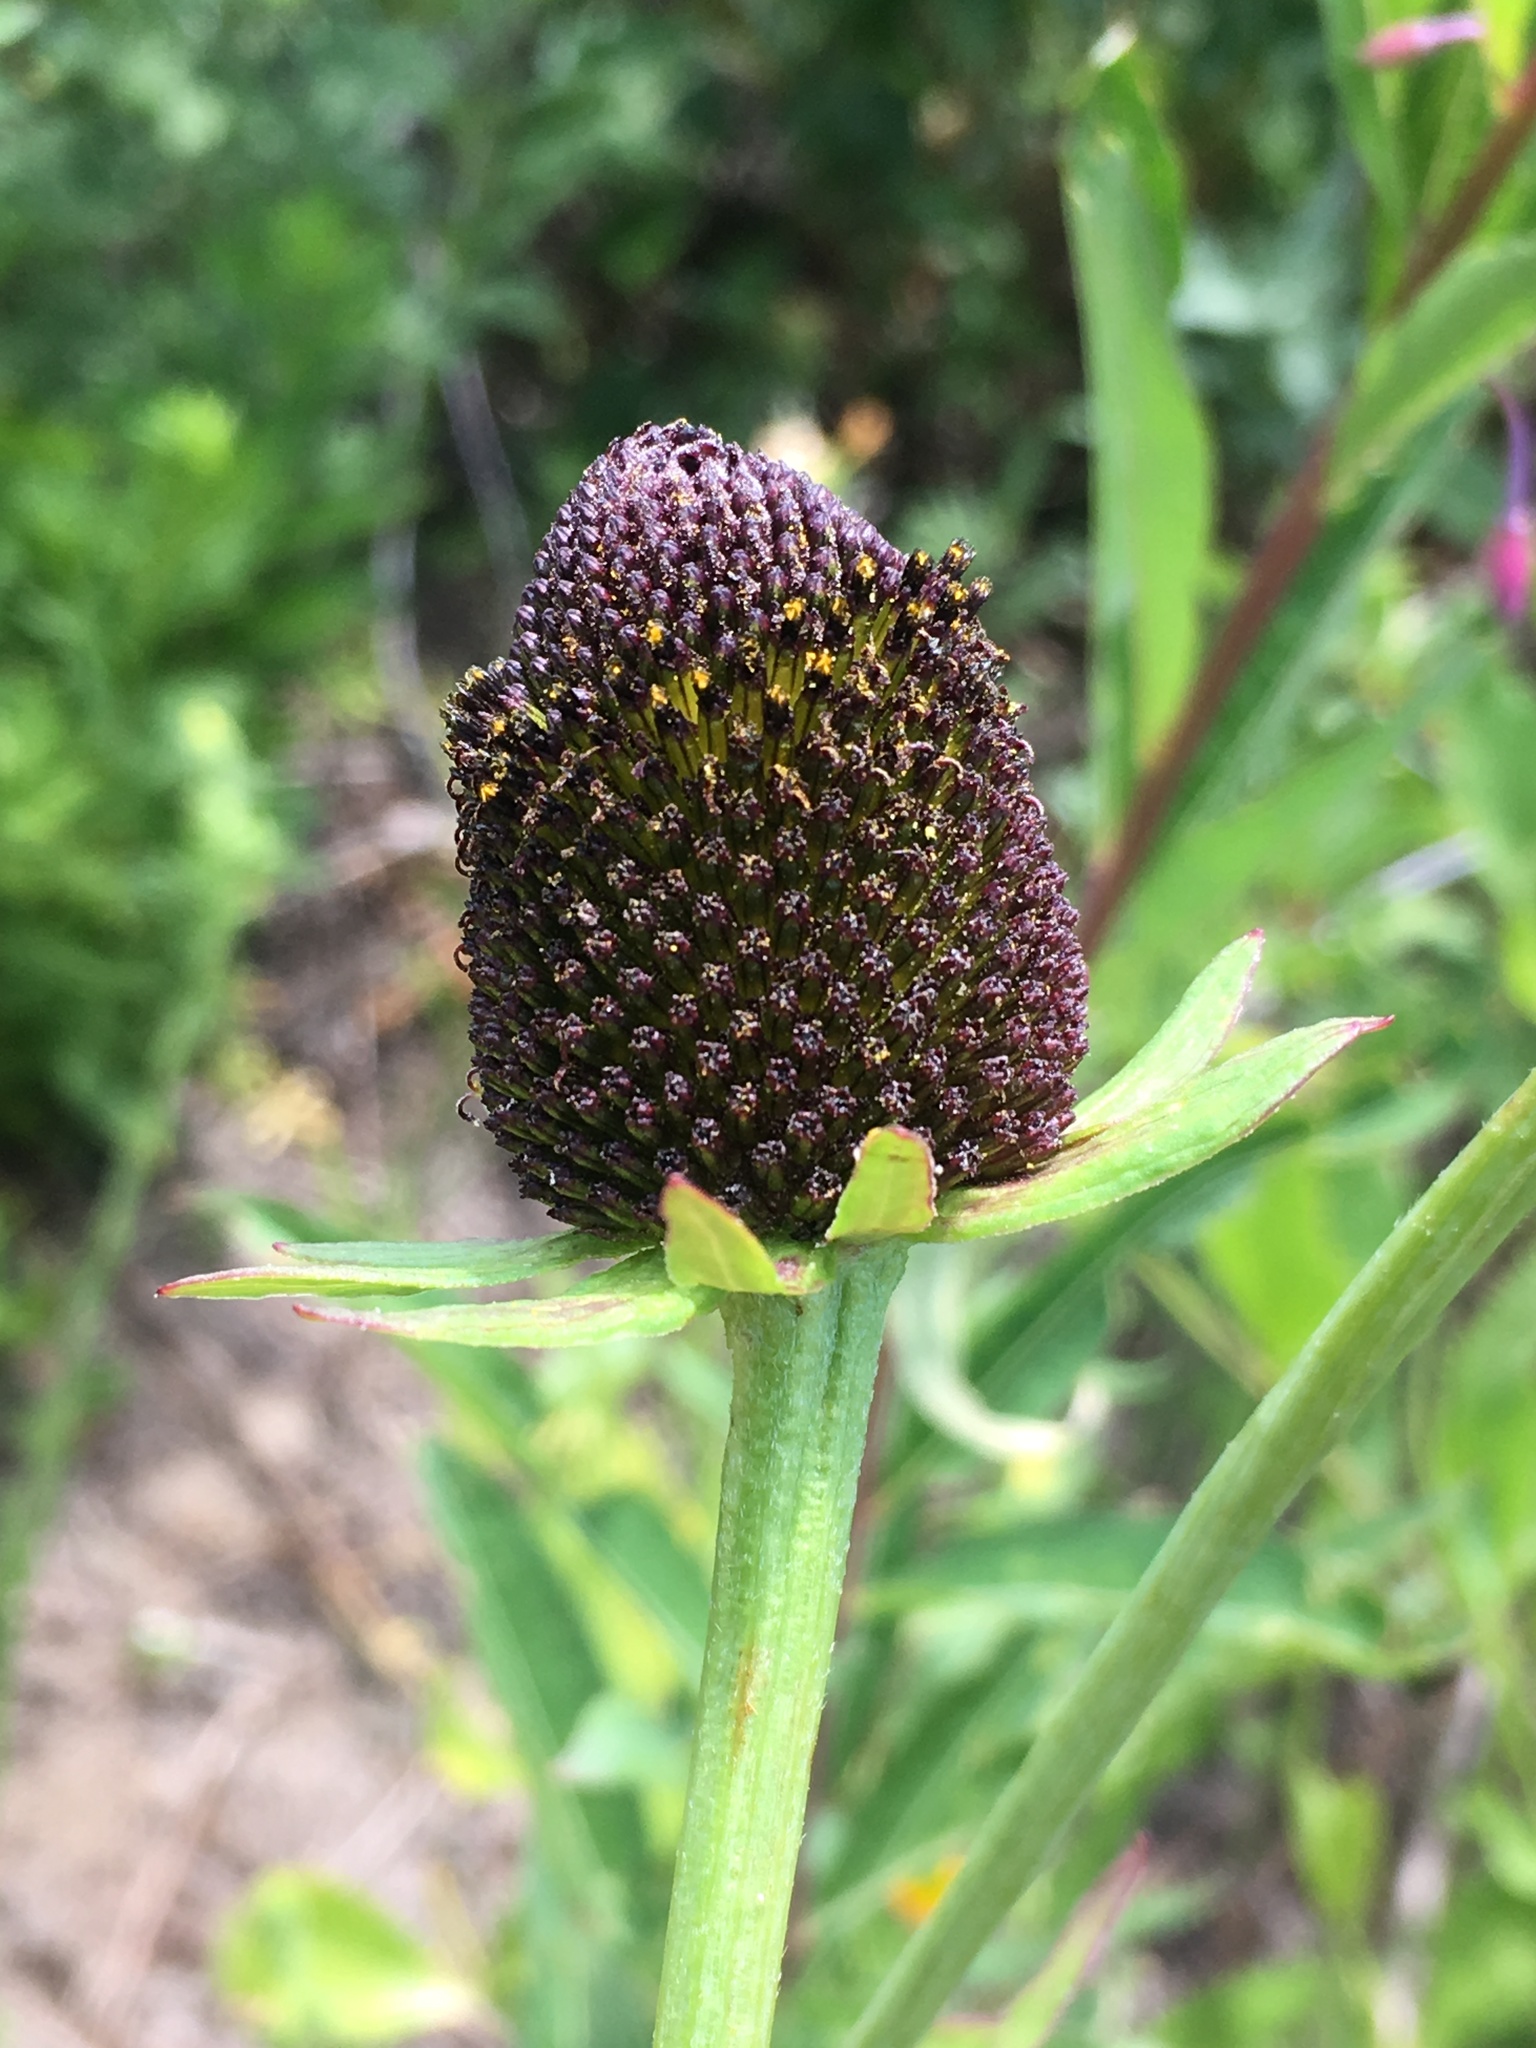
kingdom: Plantae
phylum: Tracheophyta
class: Magnoliopsida
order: Asterales
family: Asteraceae
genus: Rudbeckia
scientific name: Rudbeckia occidentalis
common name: Western coneflower
